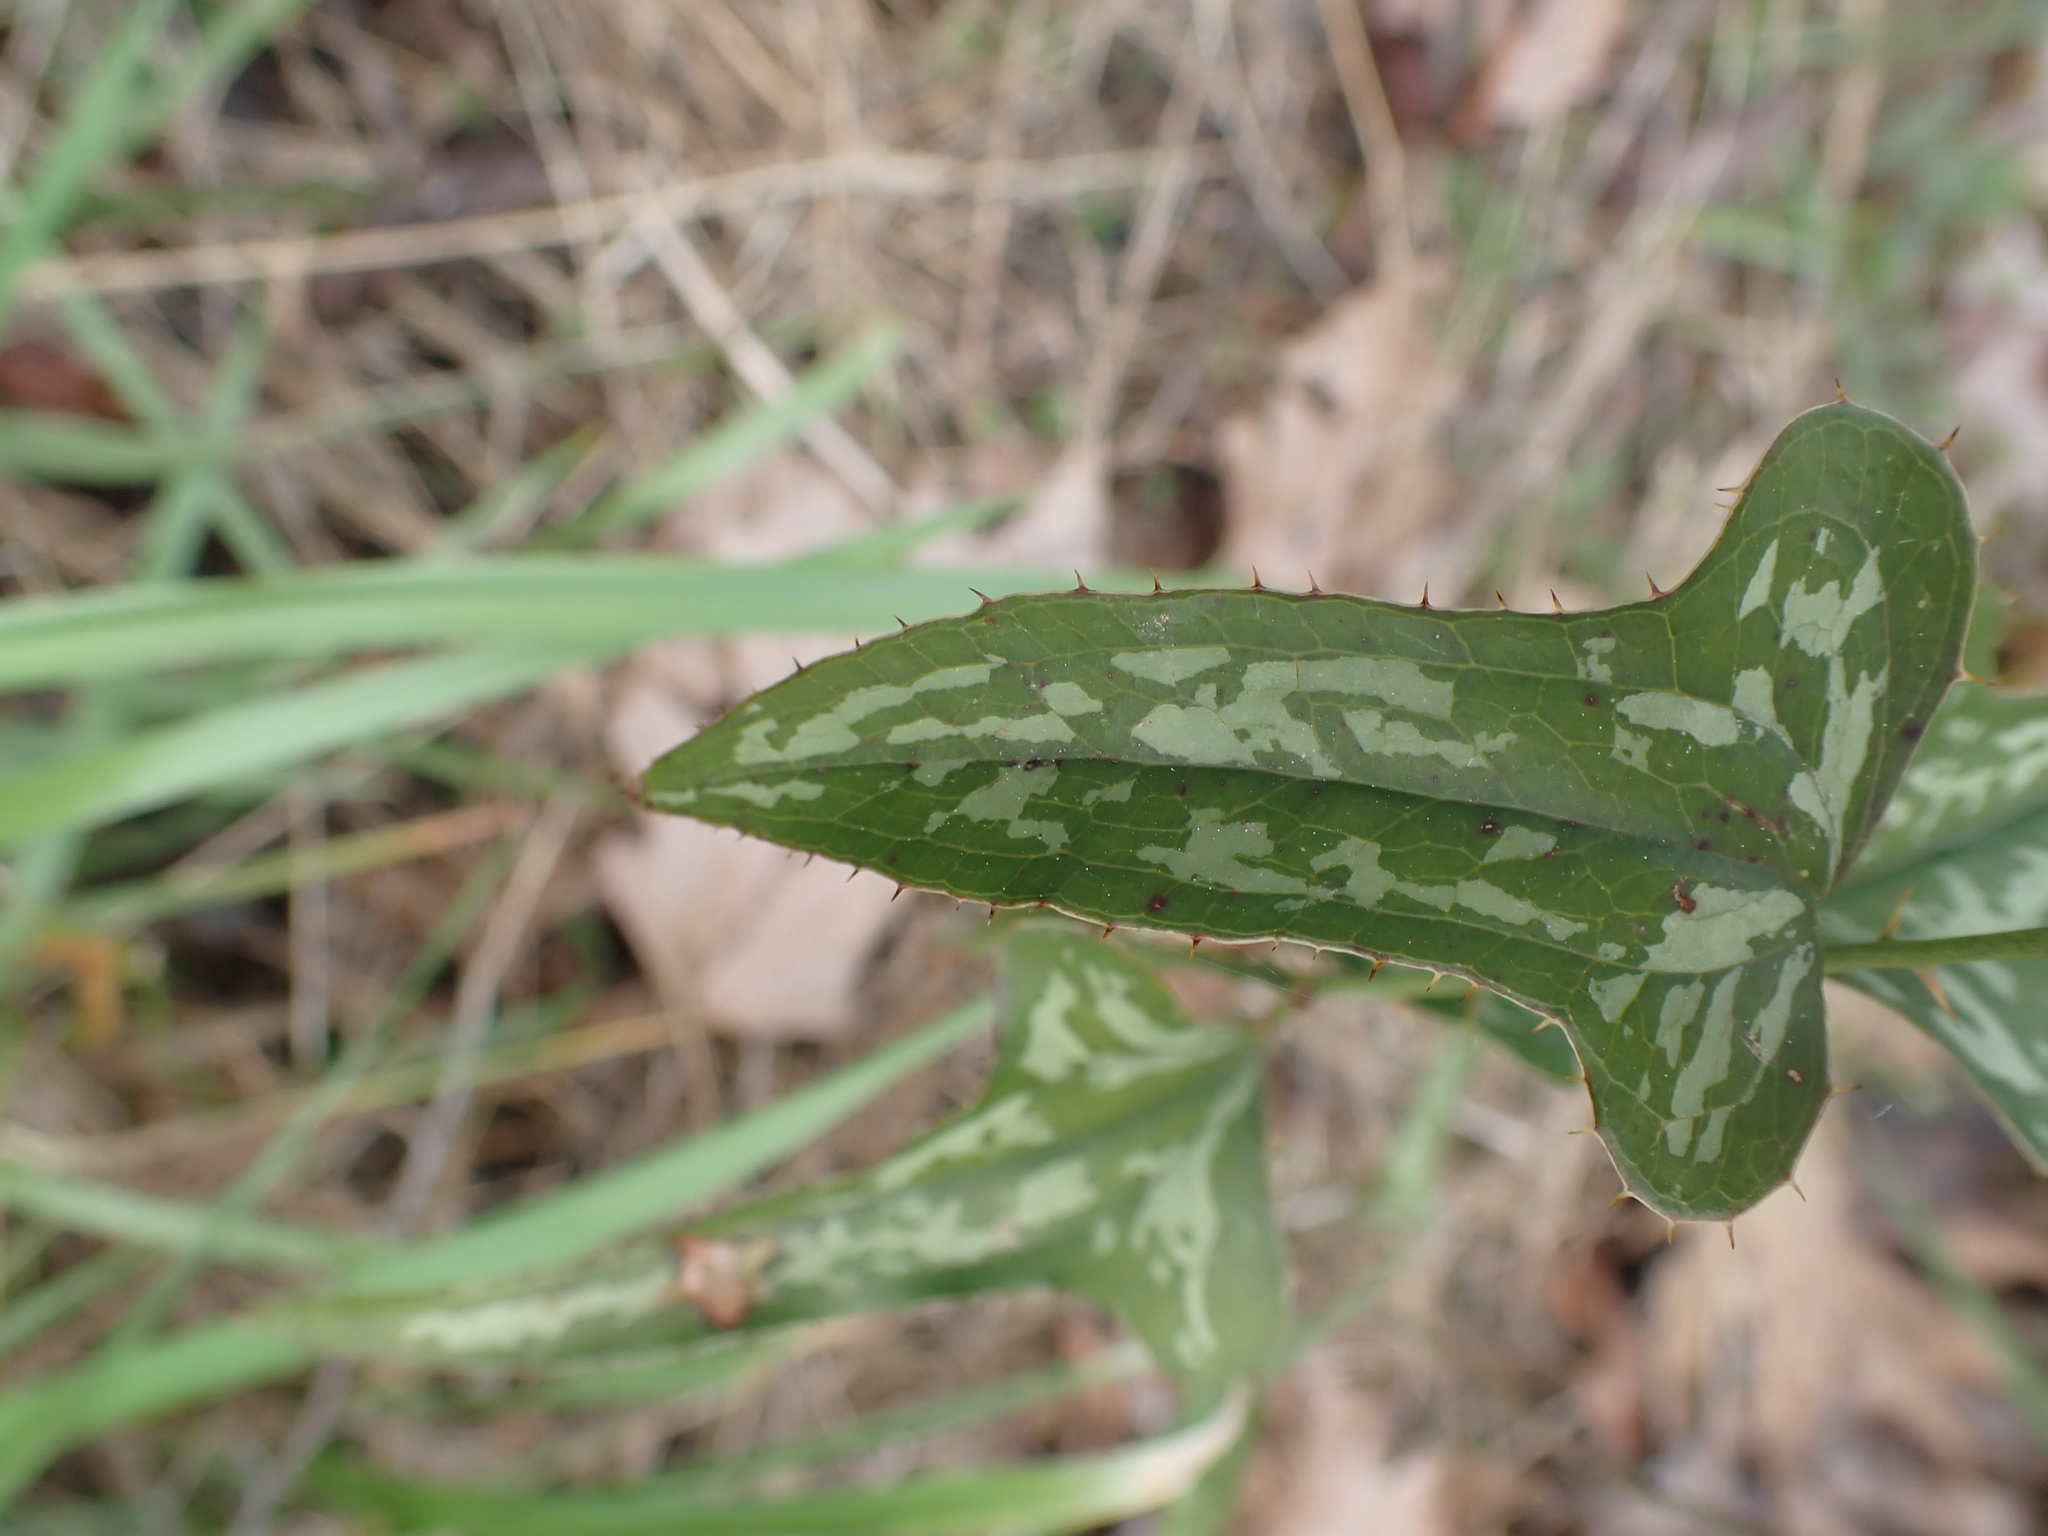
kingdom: Plantae
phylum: Tracheophyta
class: Liliopsida
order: Liliales
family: Smilacaceae
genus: Smilax
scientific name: Smilax bona-nox
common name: Catbrier
